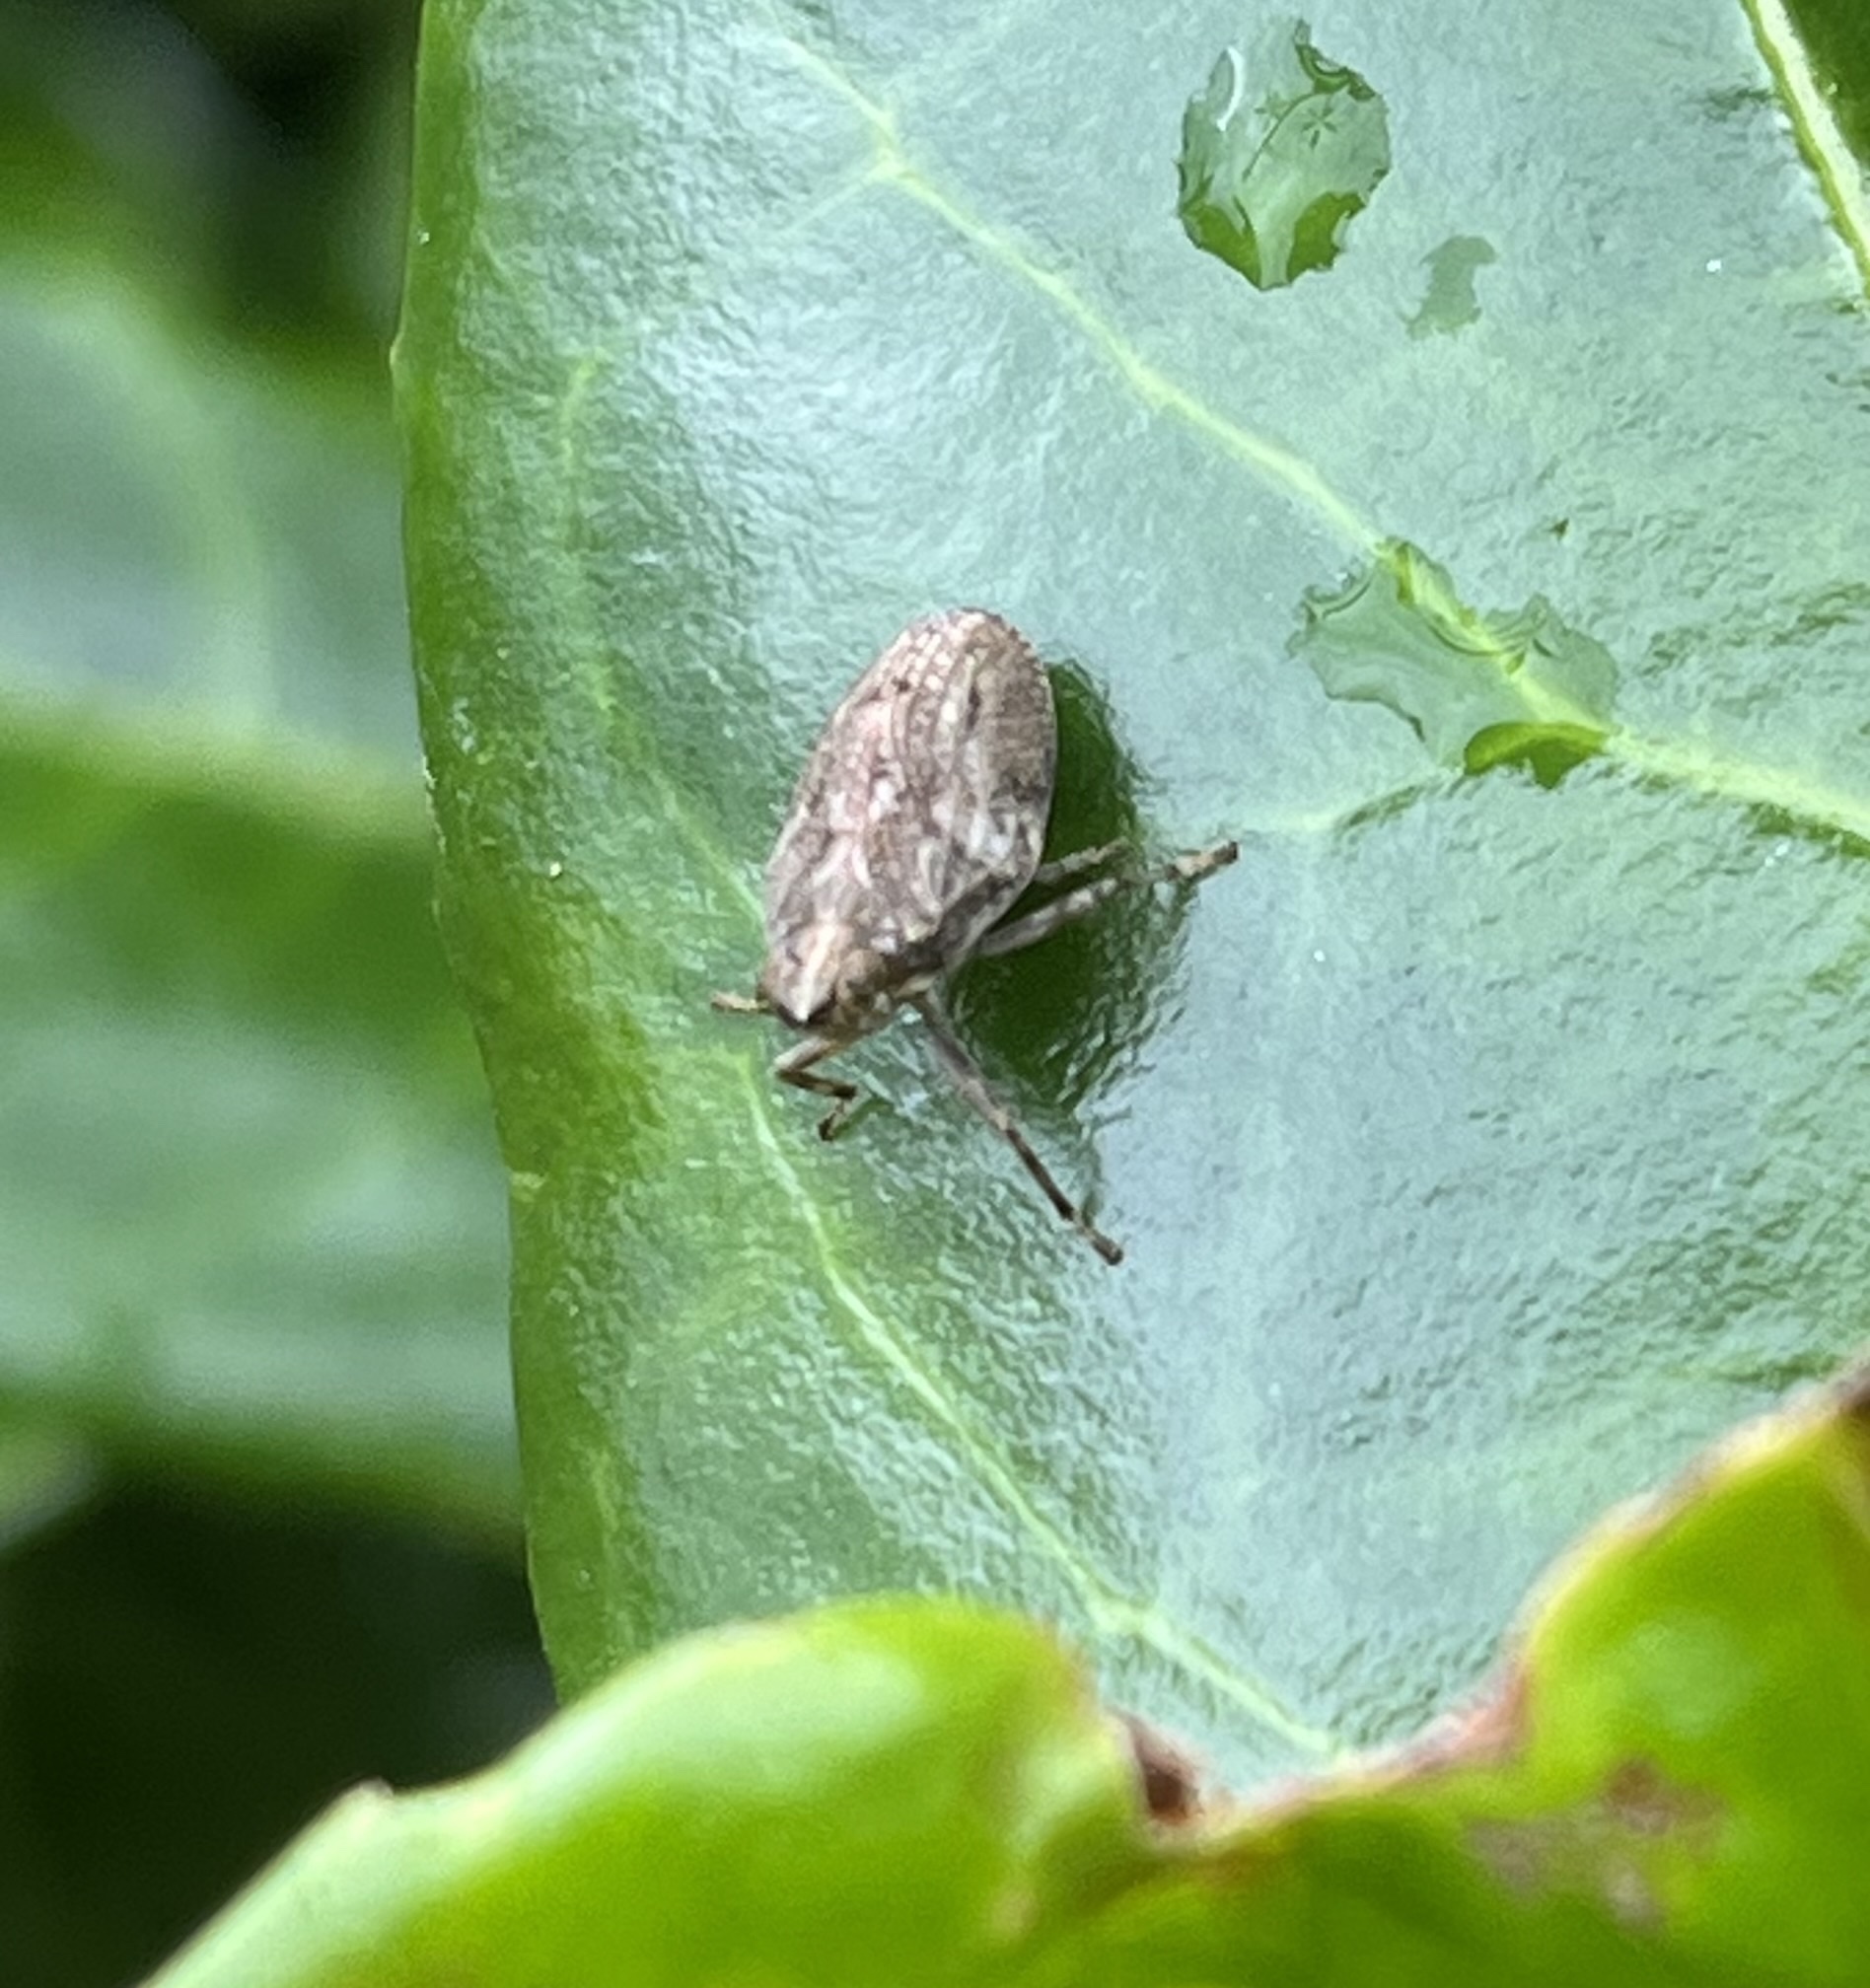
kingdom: Animalia
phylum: Arthropoda
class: Insecta
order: Hemiptera
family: Issidae
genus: Issus
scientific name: Issus coleoptratus
